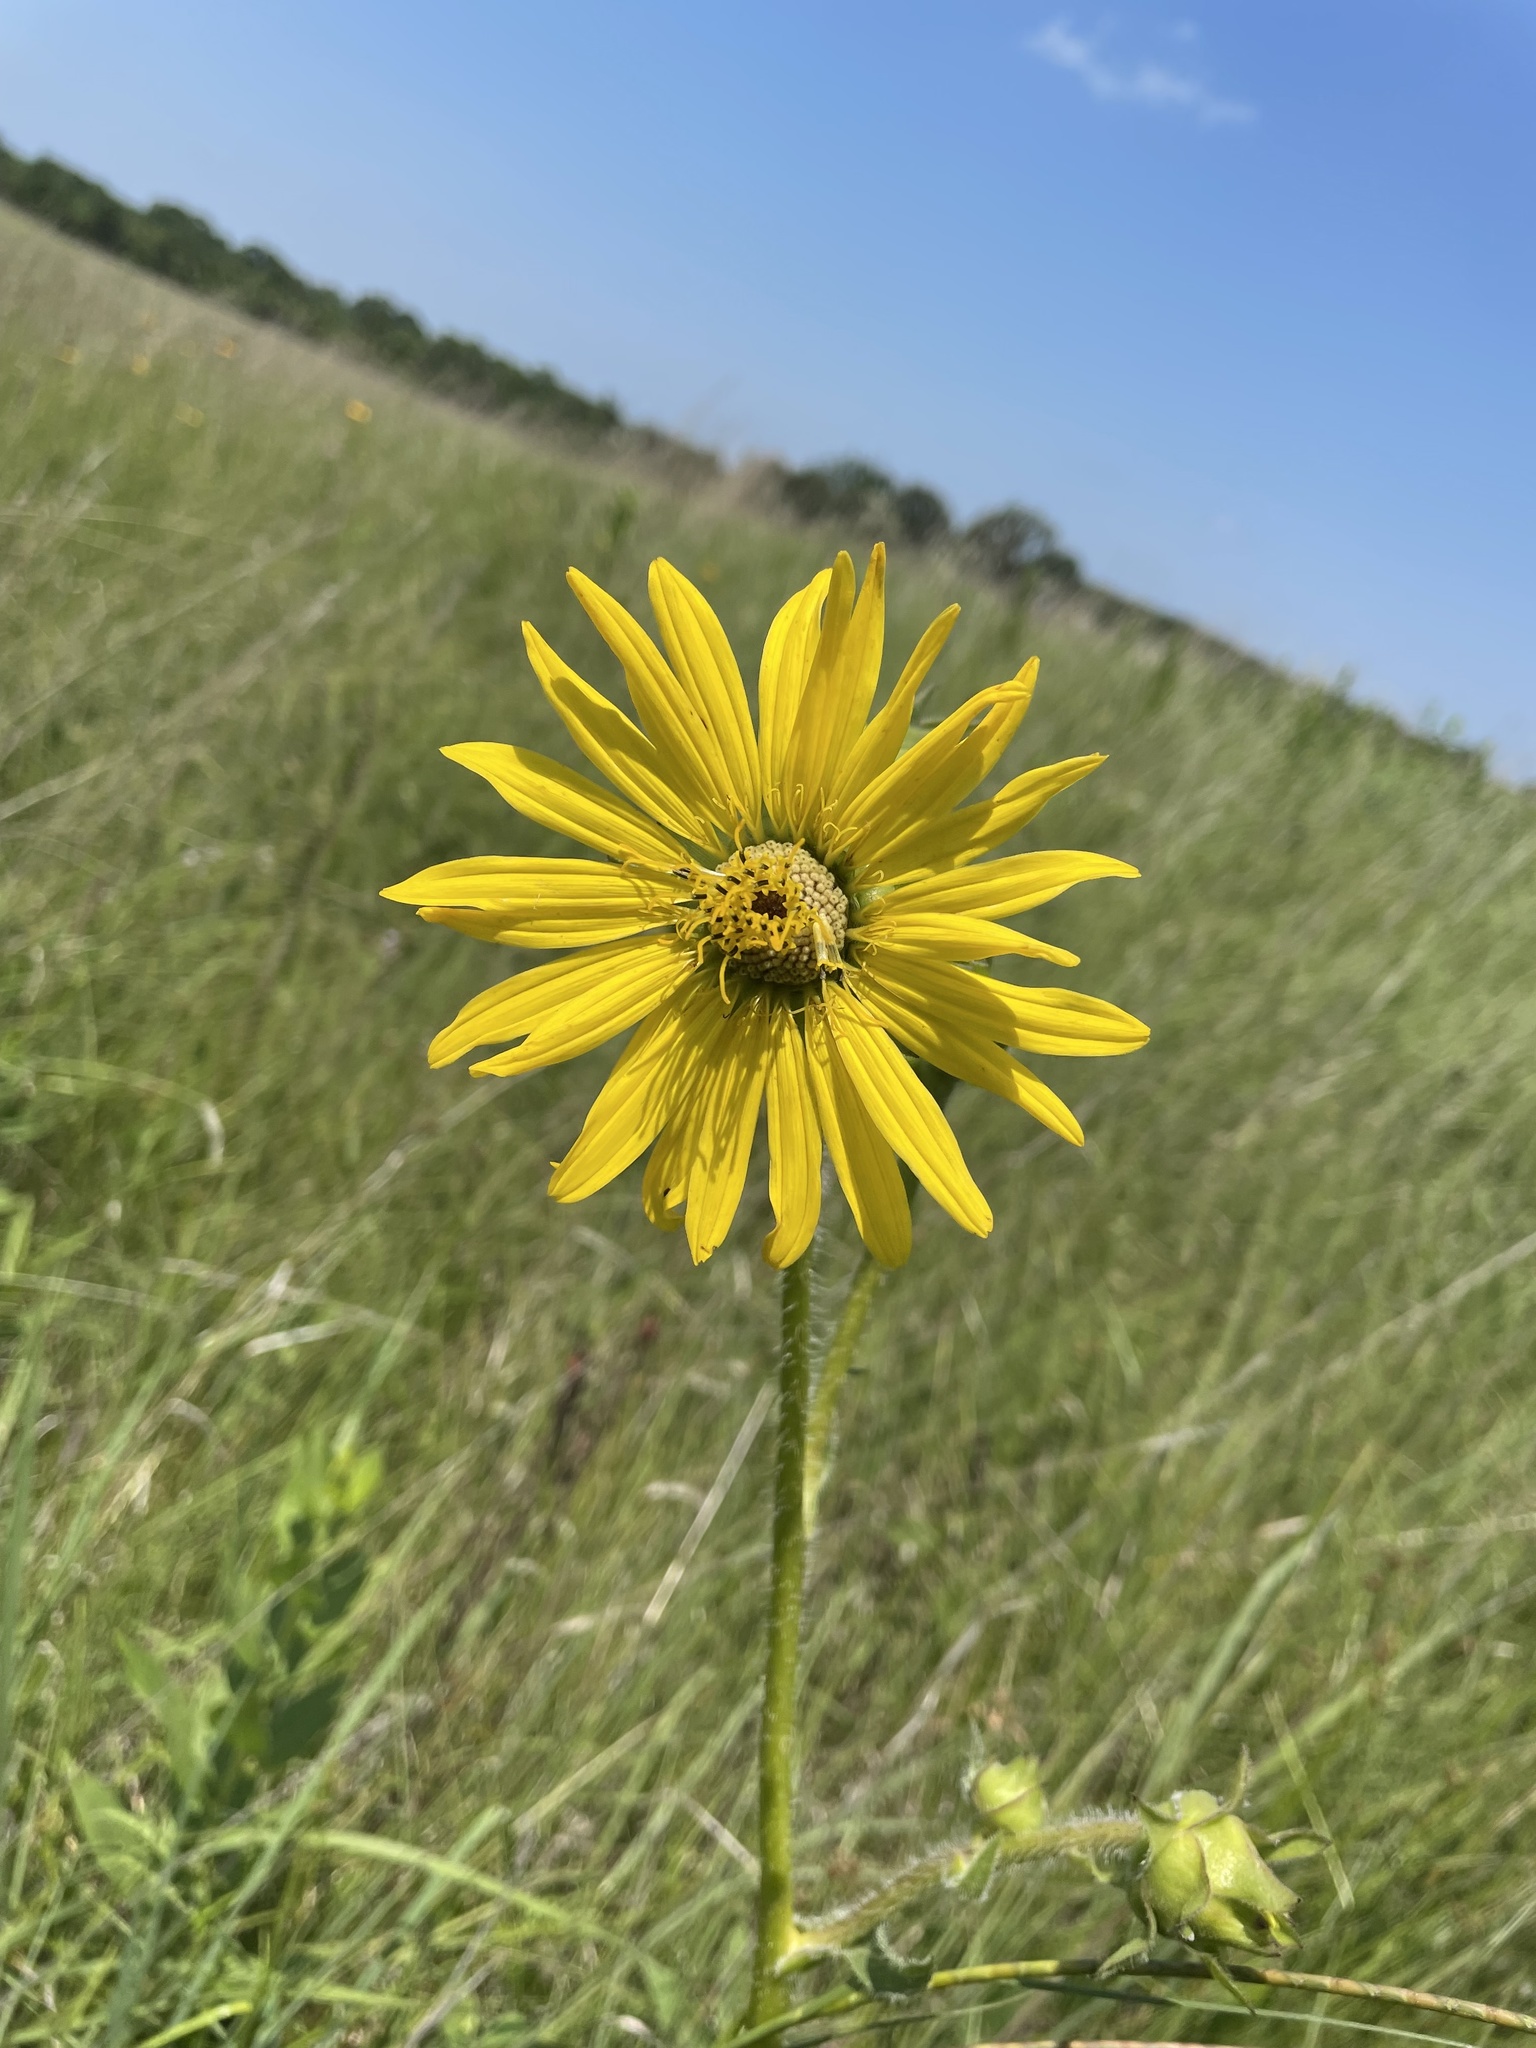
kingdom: Plantae
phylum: Tracheophyta
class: Magnoliopsida
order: Asterales
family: Asteraceae
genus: Silphium
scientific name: Silphium laciniatum
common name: Polarplant
